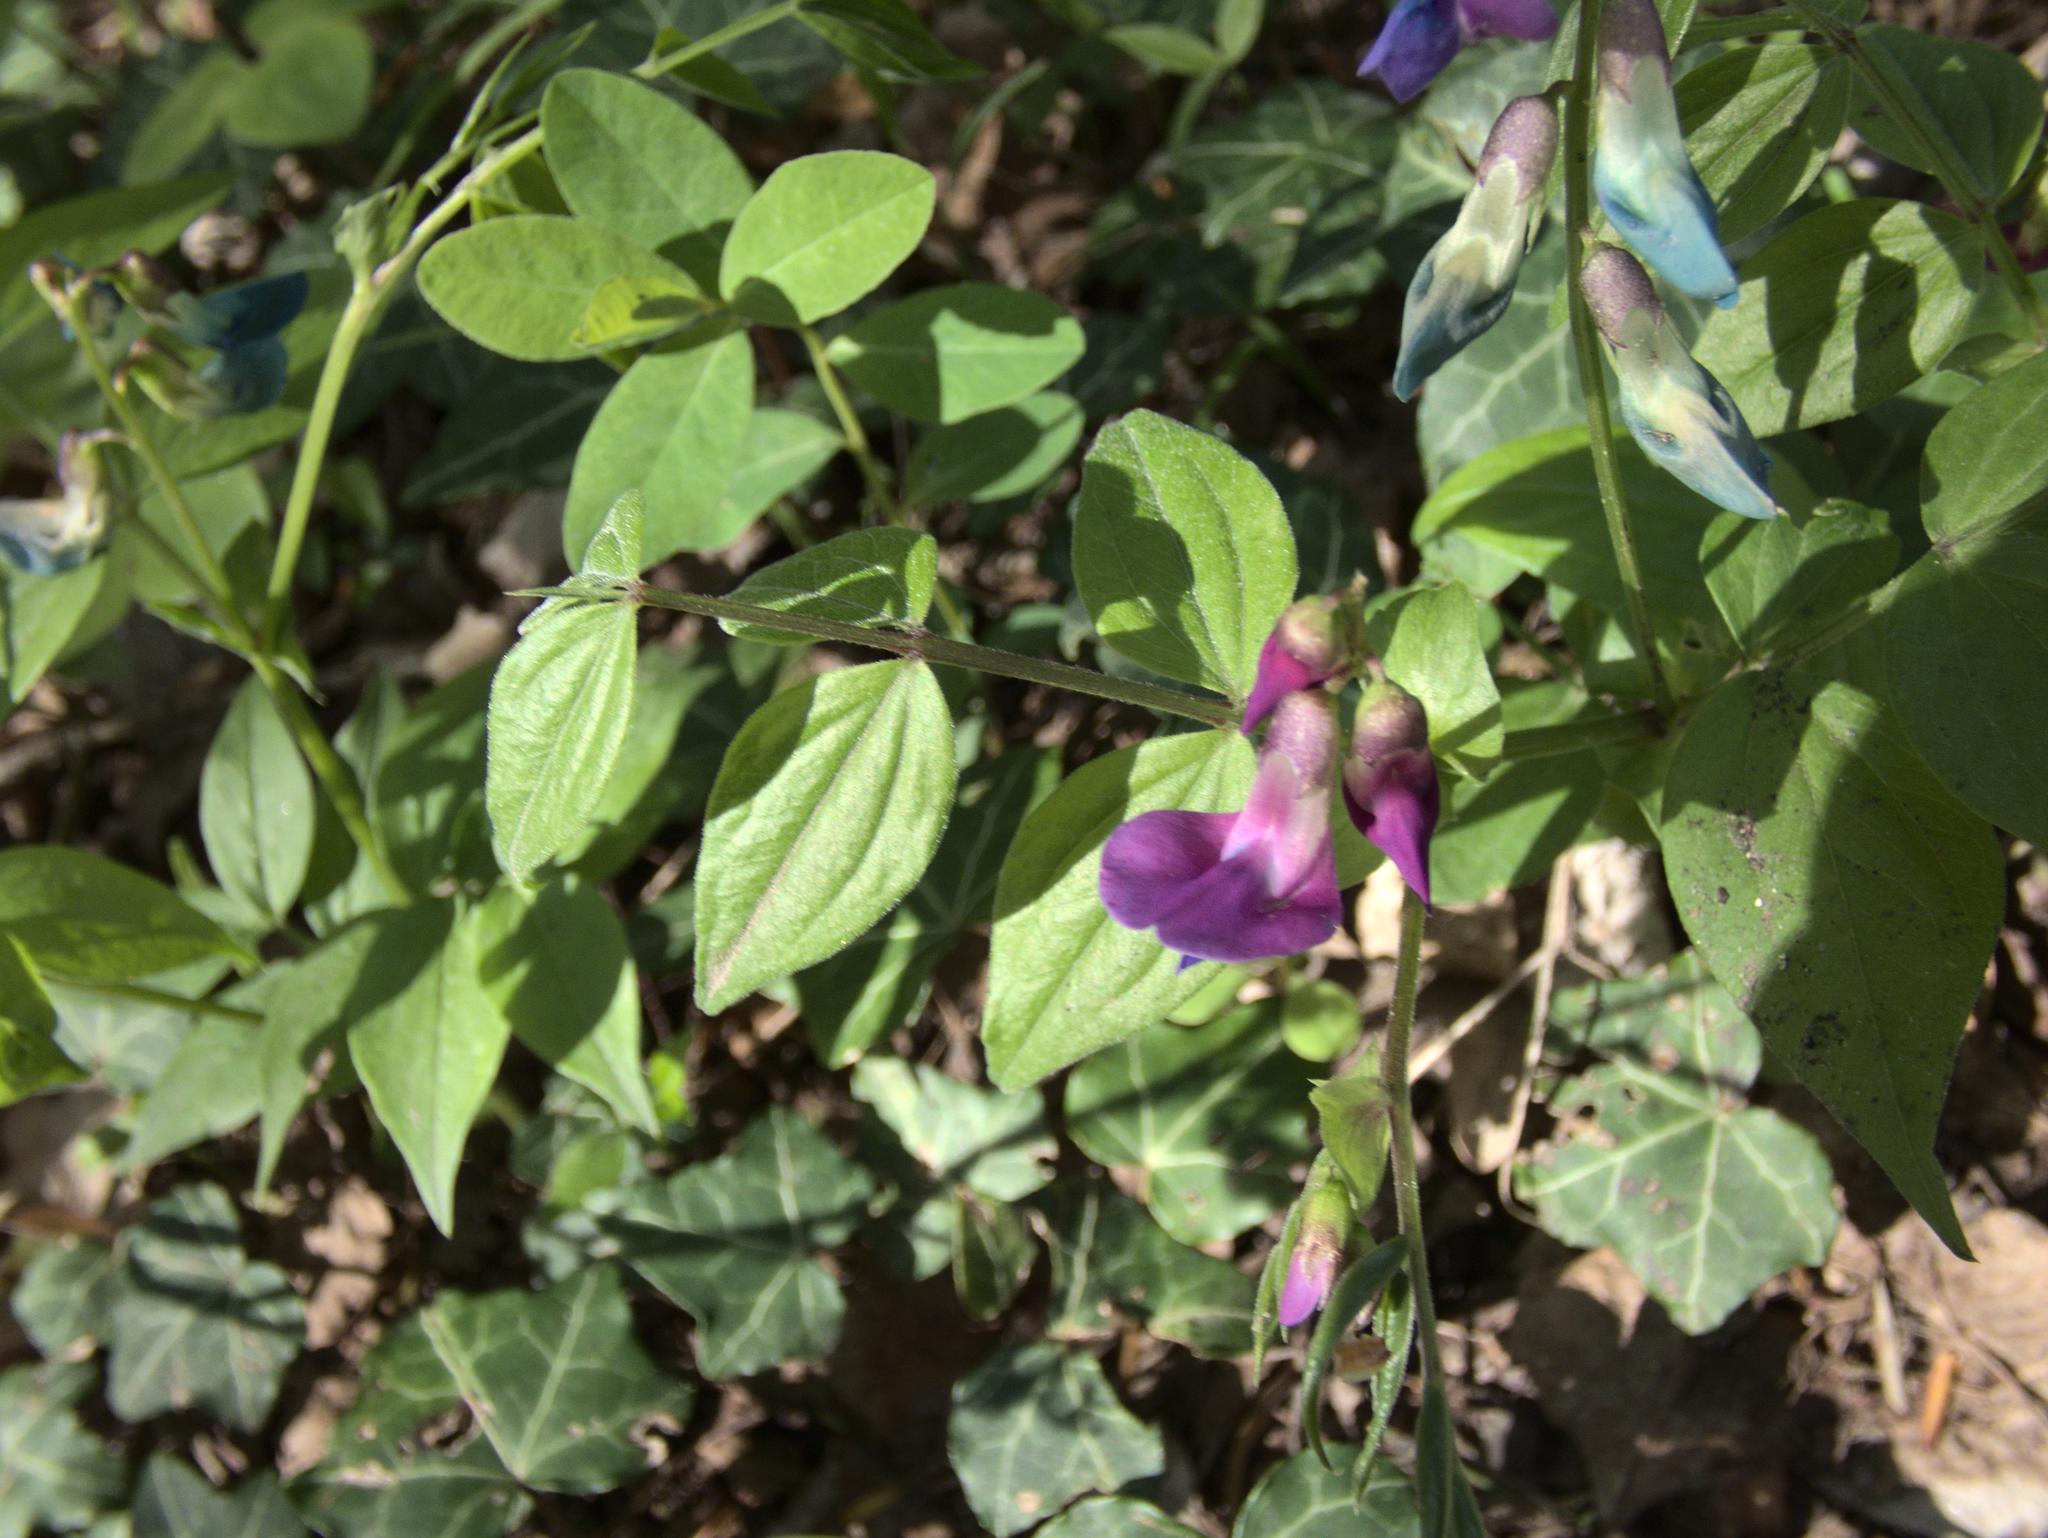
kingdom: Plantae
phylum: Tracheophyta
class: Magnoliopsida
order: Fabales
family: Fabaceae
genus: Lathyrus
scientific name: Lathyrus vernus
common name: Spring pea
